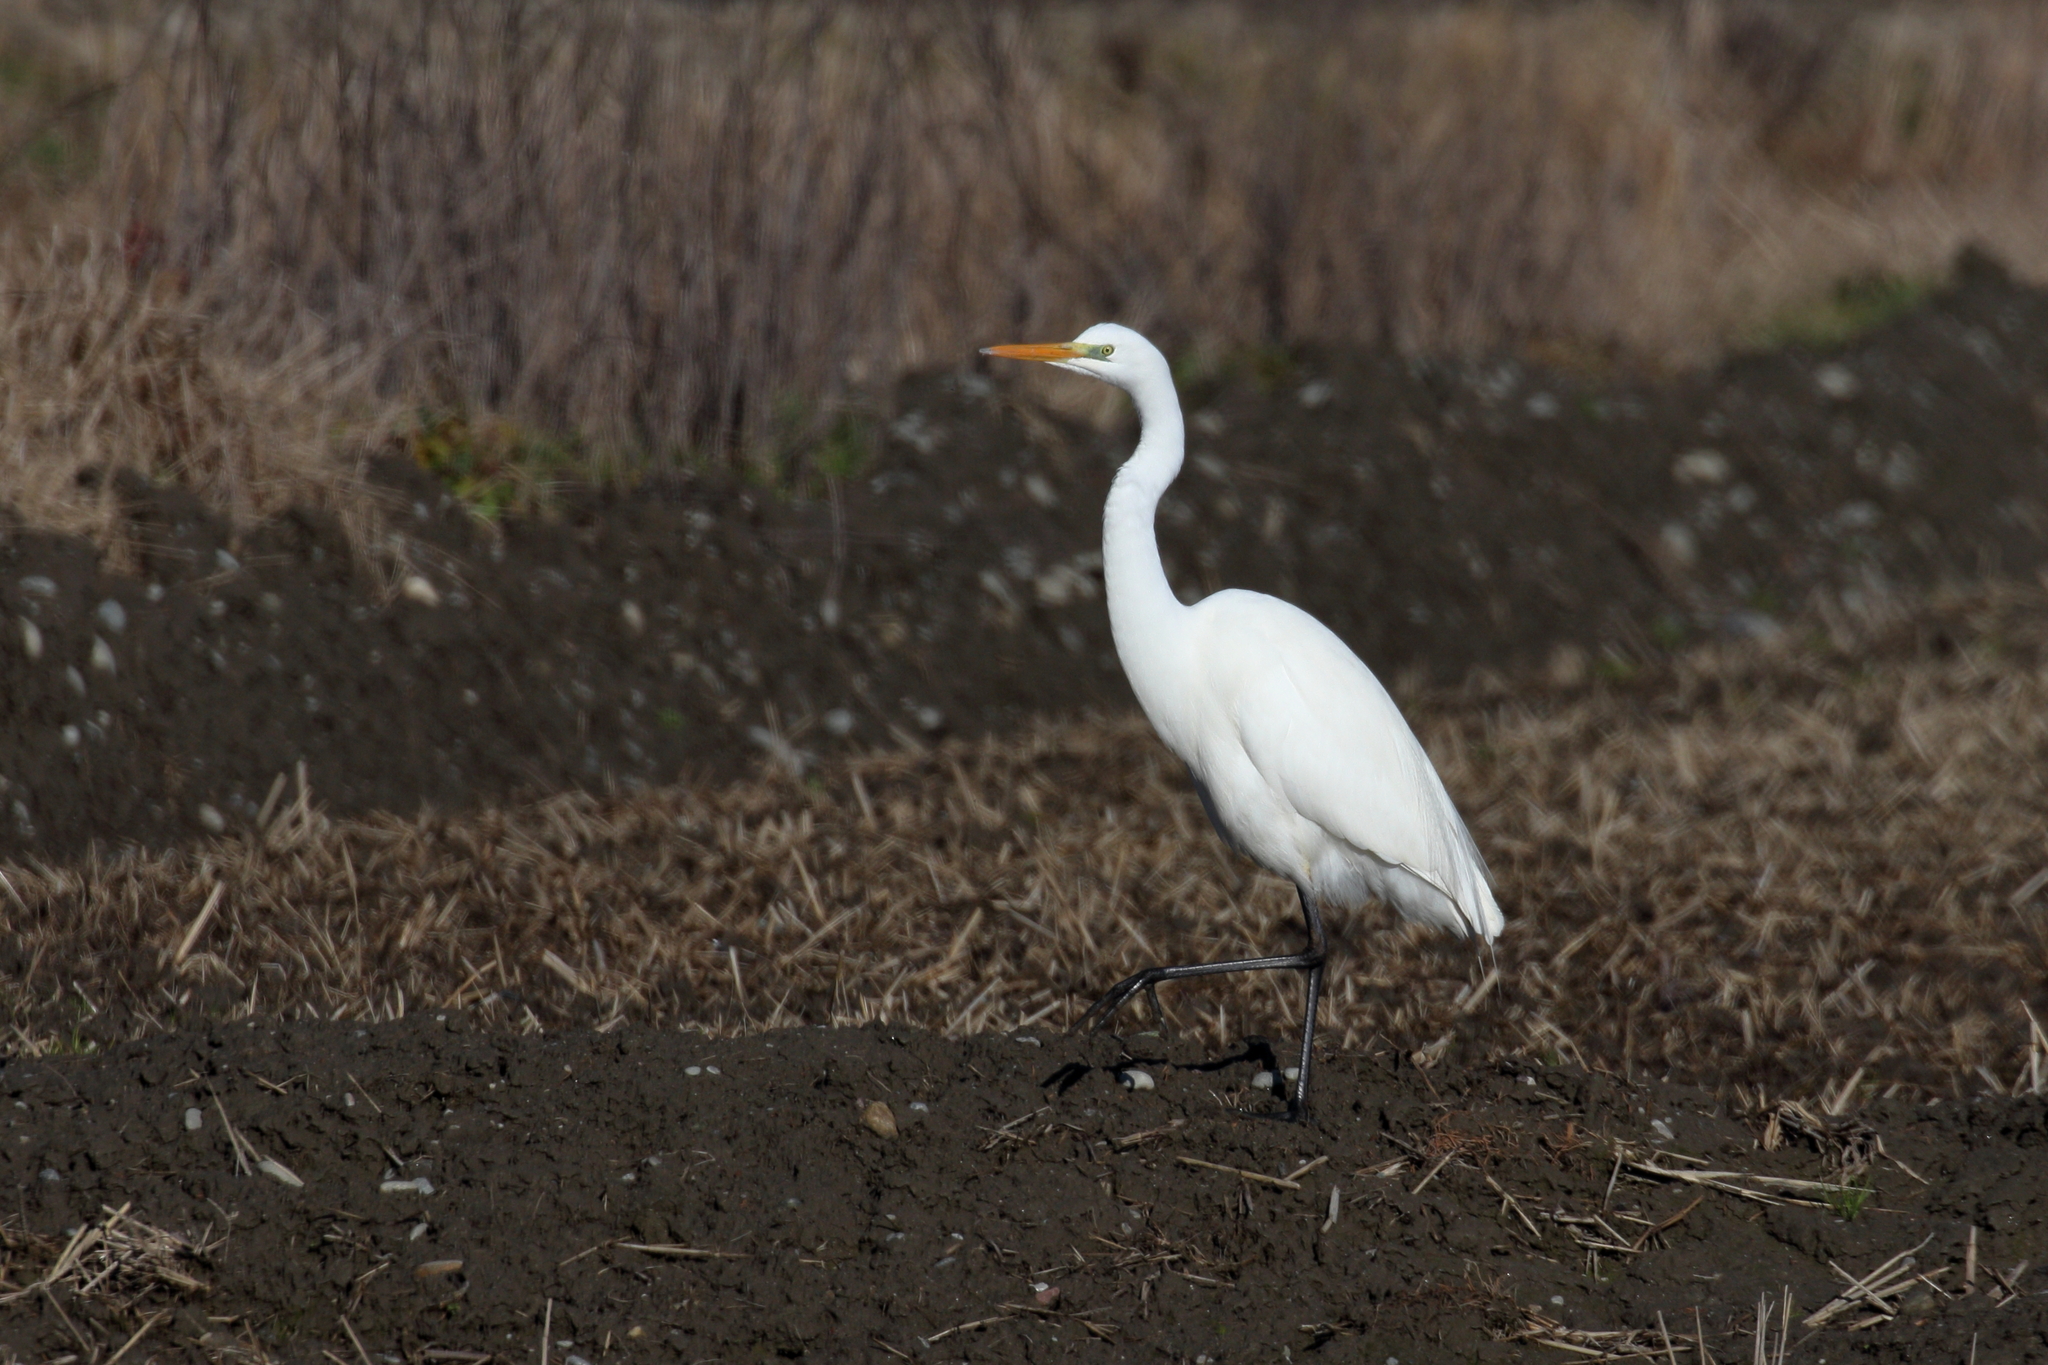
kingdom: Animalia
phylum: Chordata
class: Aves
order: Pelecaniformes
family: Ardeidae
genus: Ardea
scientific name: Ardea alba
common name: Great egret
